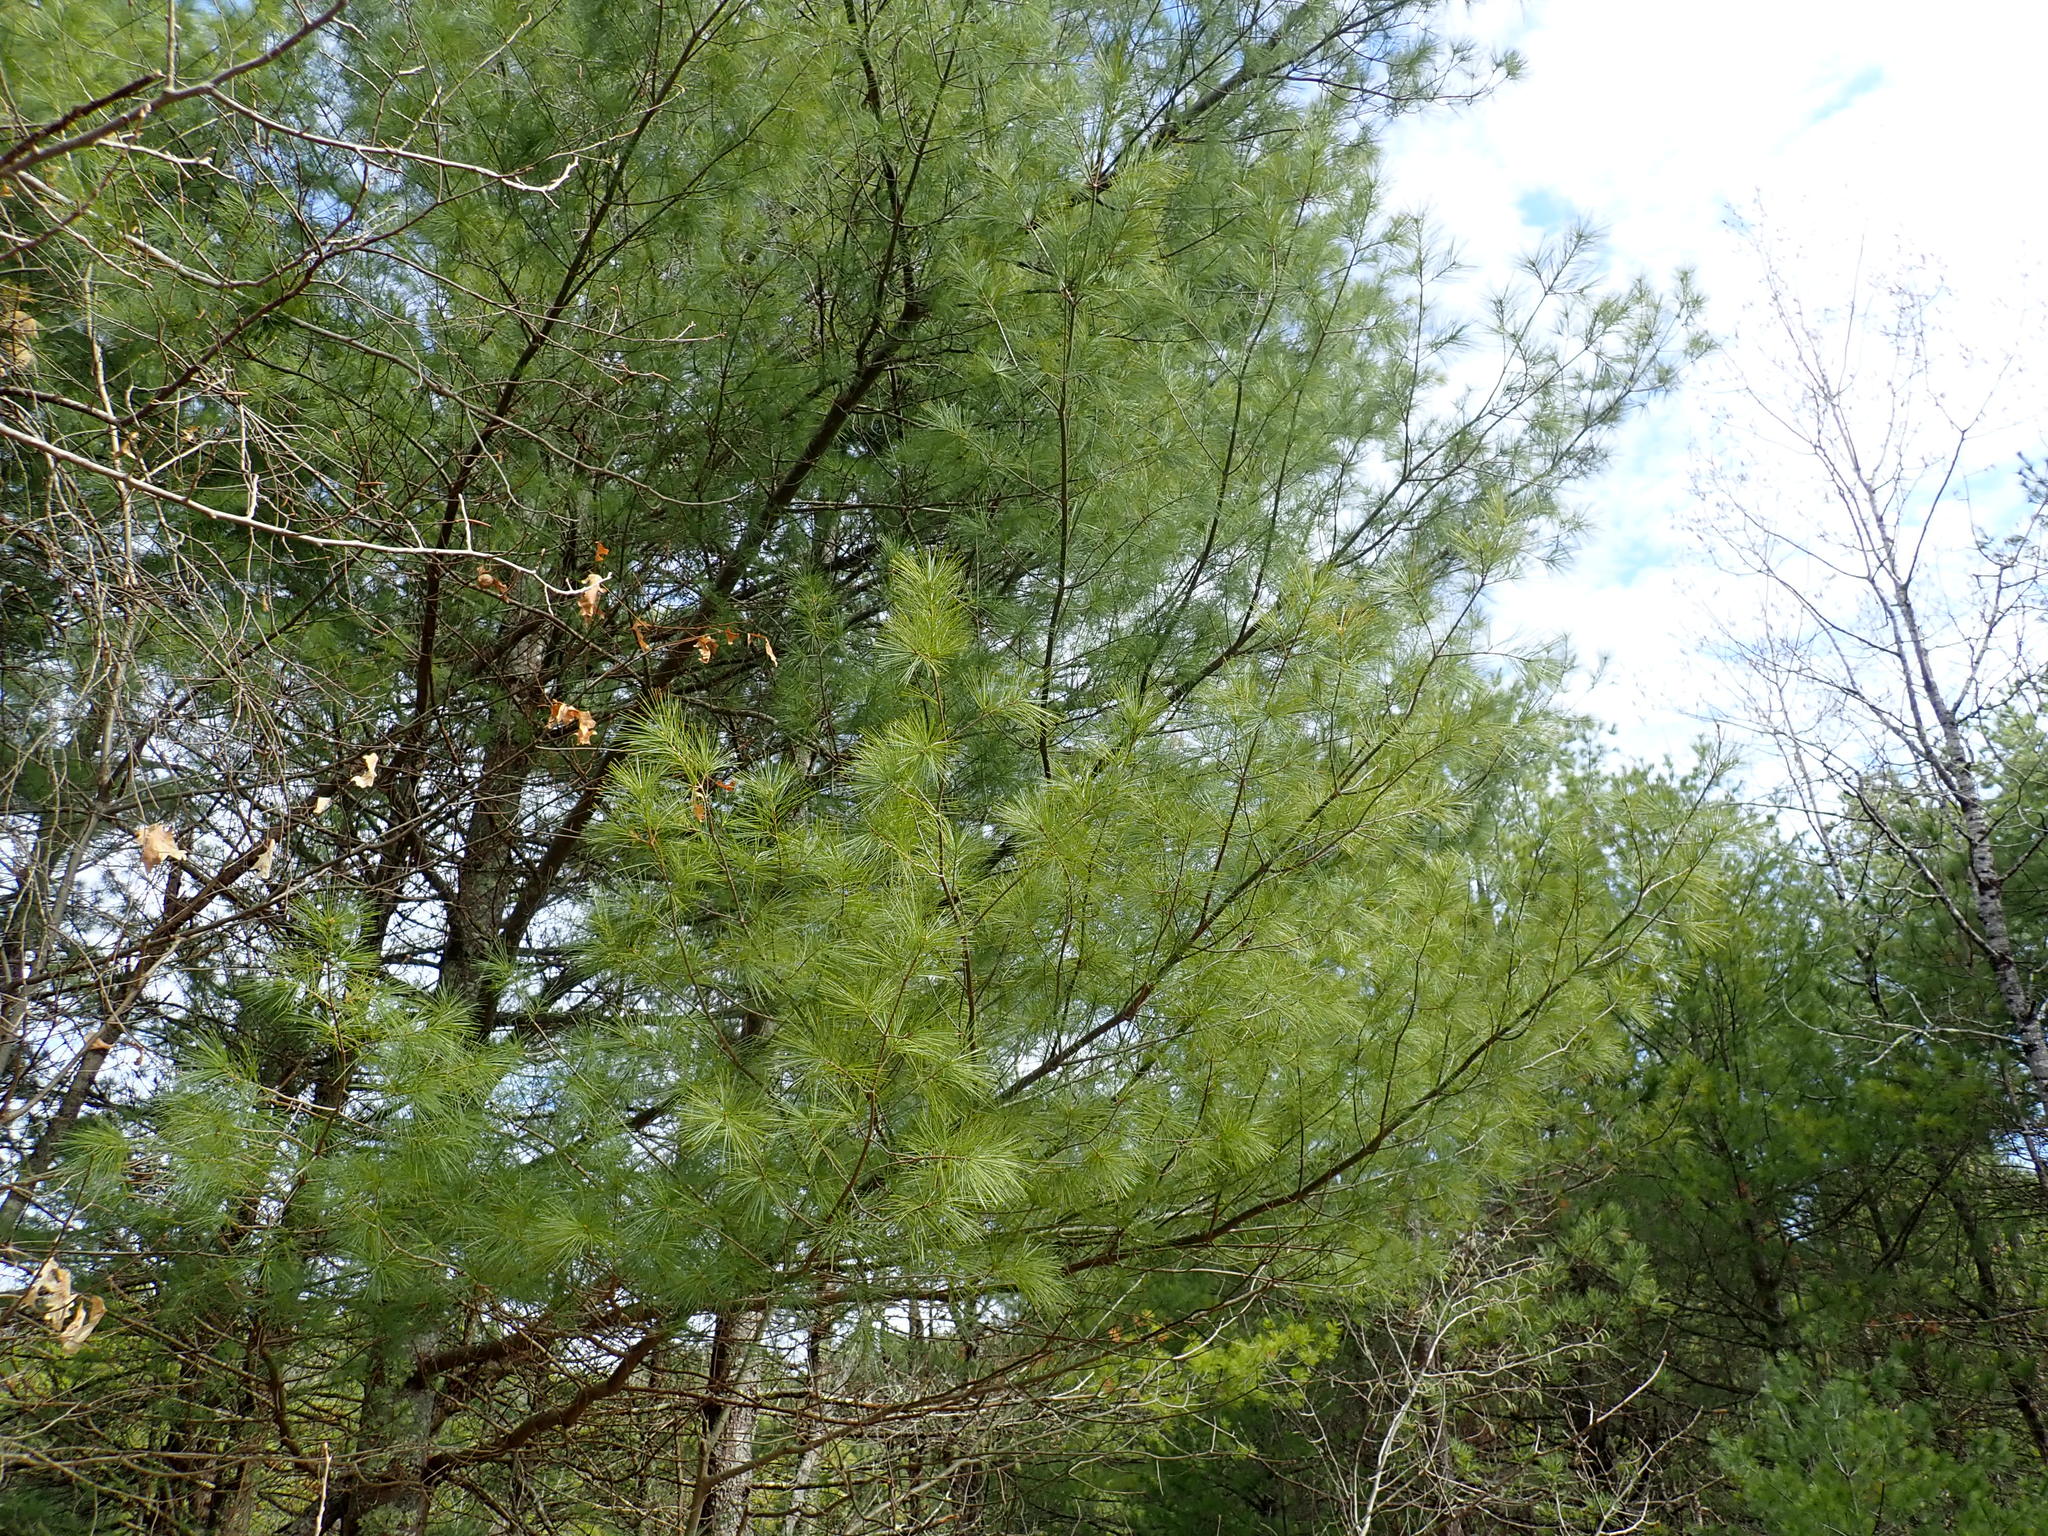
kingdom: Plantae
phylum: Tracheophyta
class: Pinopsida
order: Pinales
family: Pinaceae
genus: Pinus
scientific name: Pinus strobus
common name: Weymouth pine
